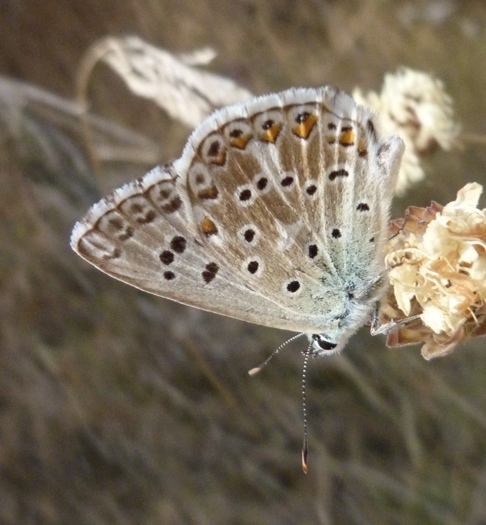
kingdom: Animalia
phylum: Arthropoda
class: Insecta
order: Lepidoptera
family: Lycaenidae
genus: Lysandra
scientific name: Lysandra hispana
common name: Provence chalkhill blue
